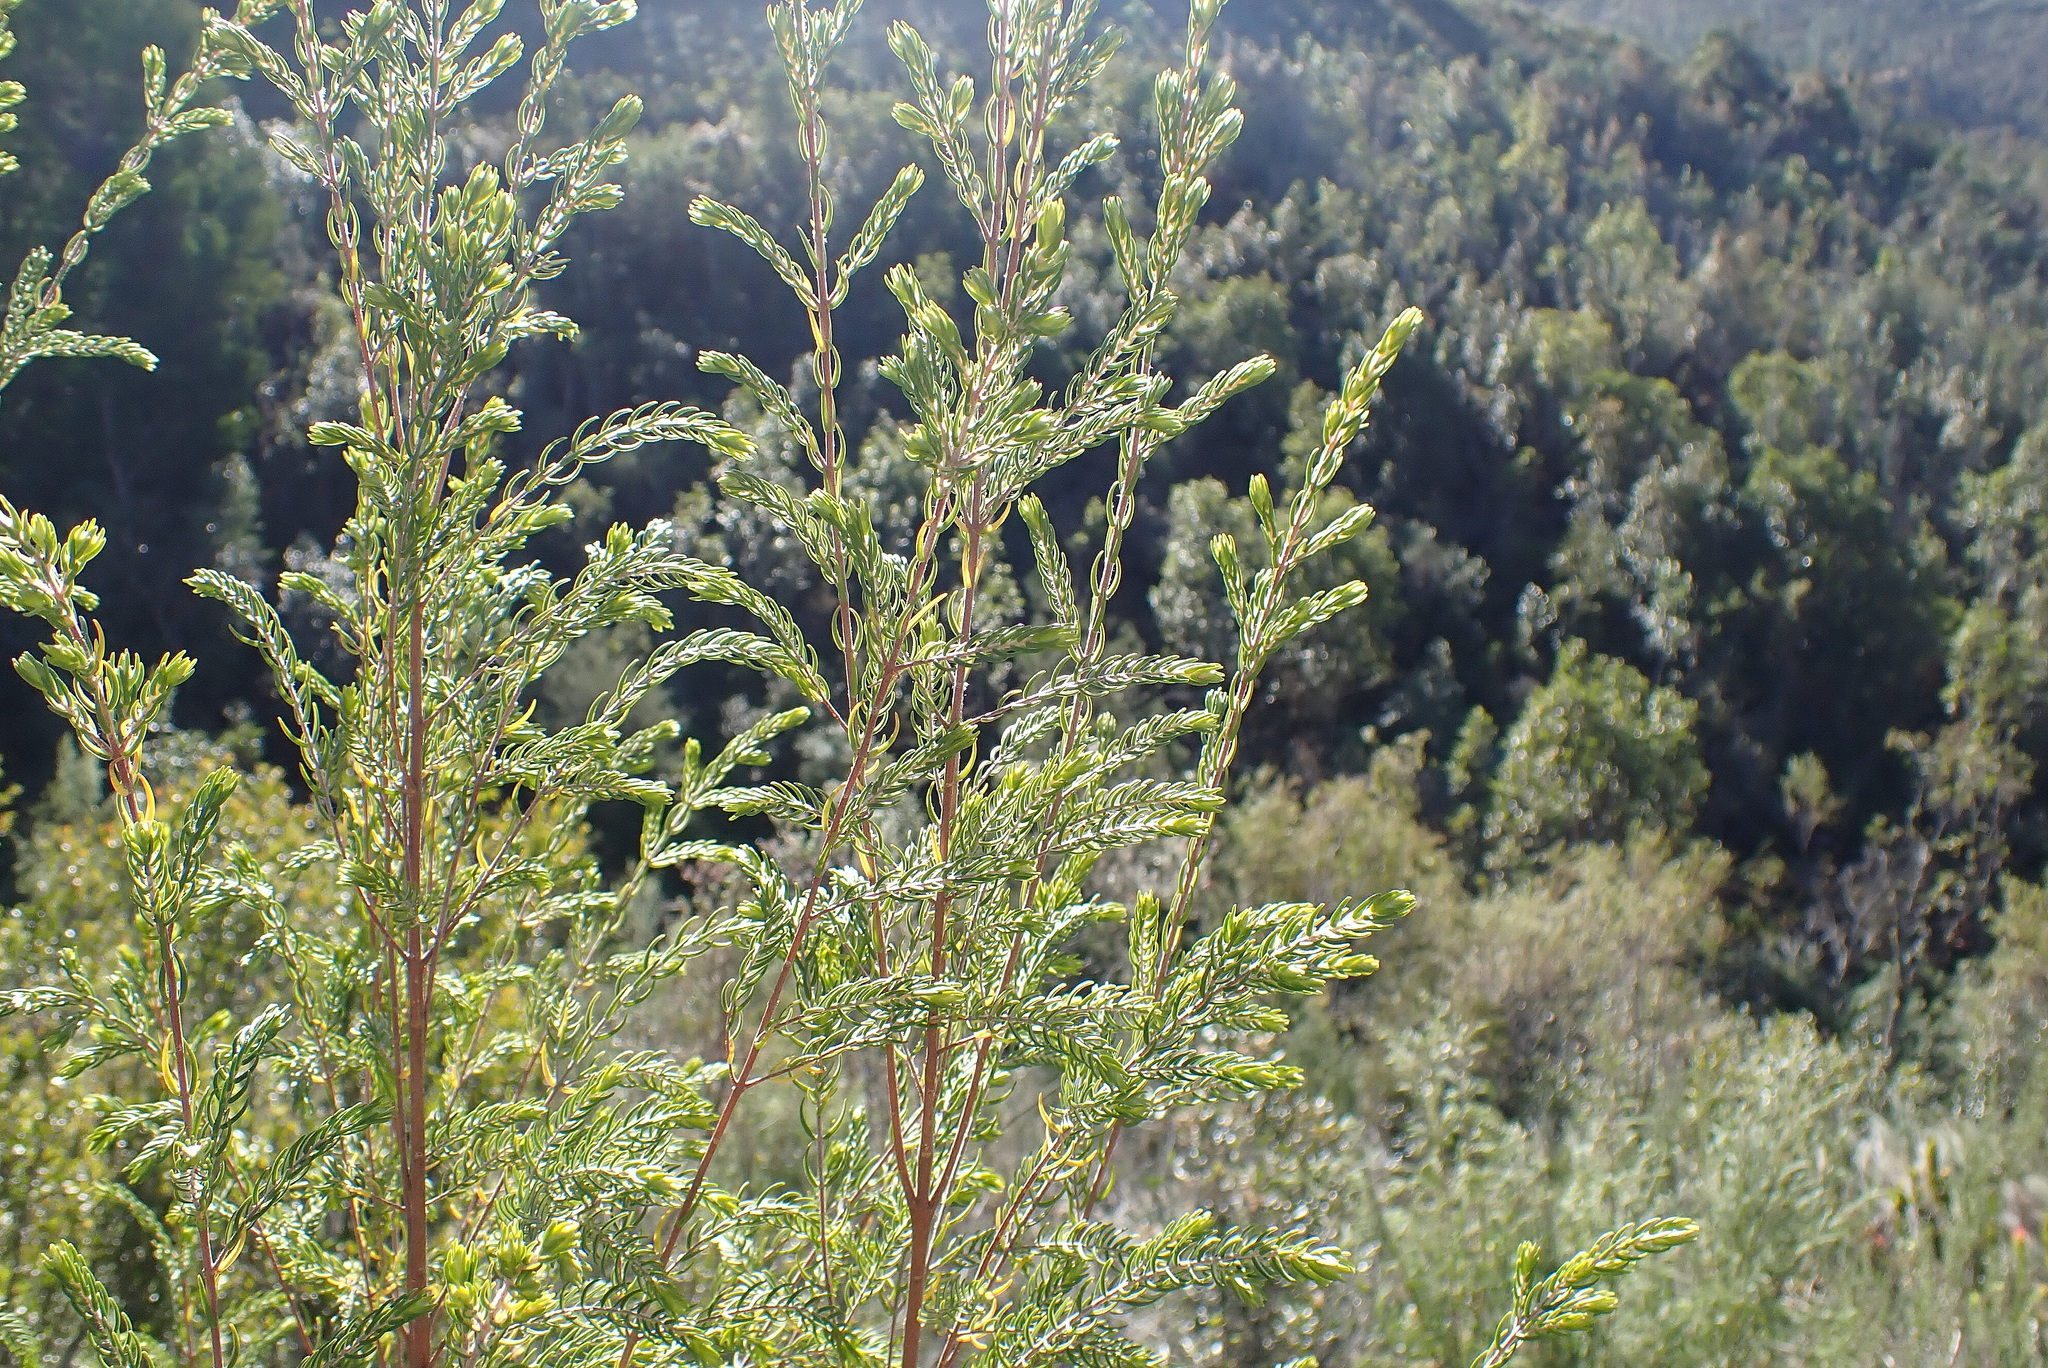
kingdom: Plantae
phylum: Tracheophyta
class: Magnoliopsida
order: Malvales
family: Thymelaeaceae
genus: Passerina
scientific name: Passerina falcifolia
